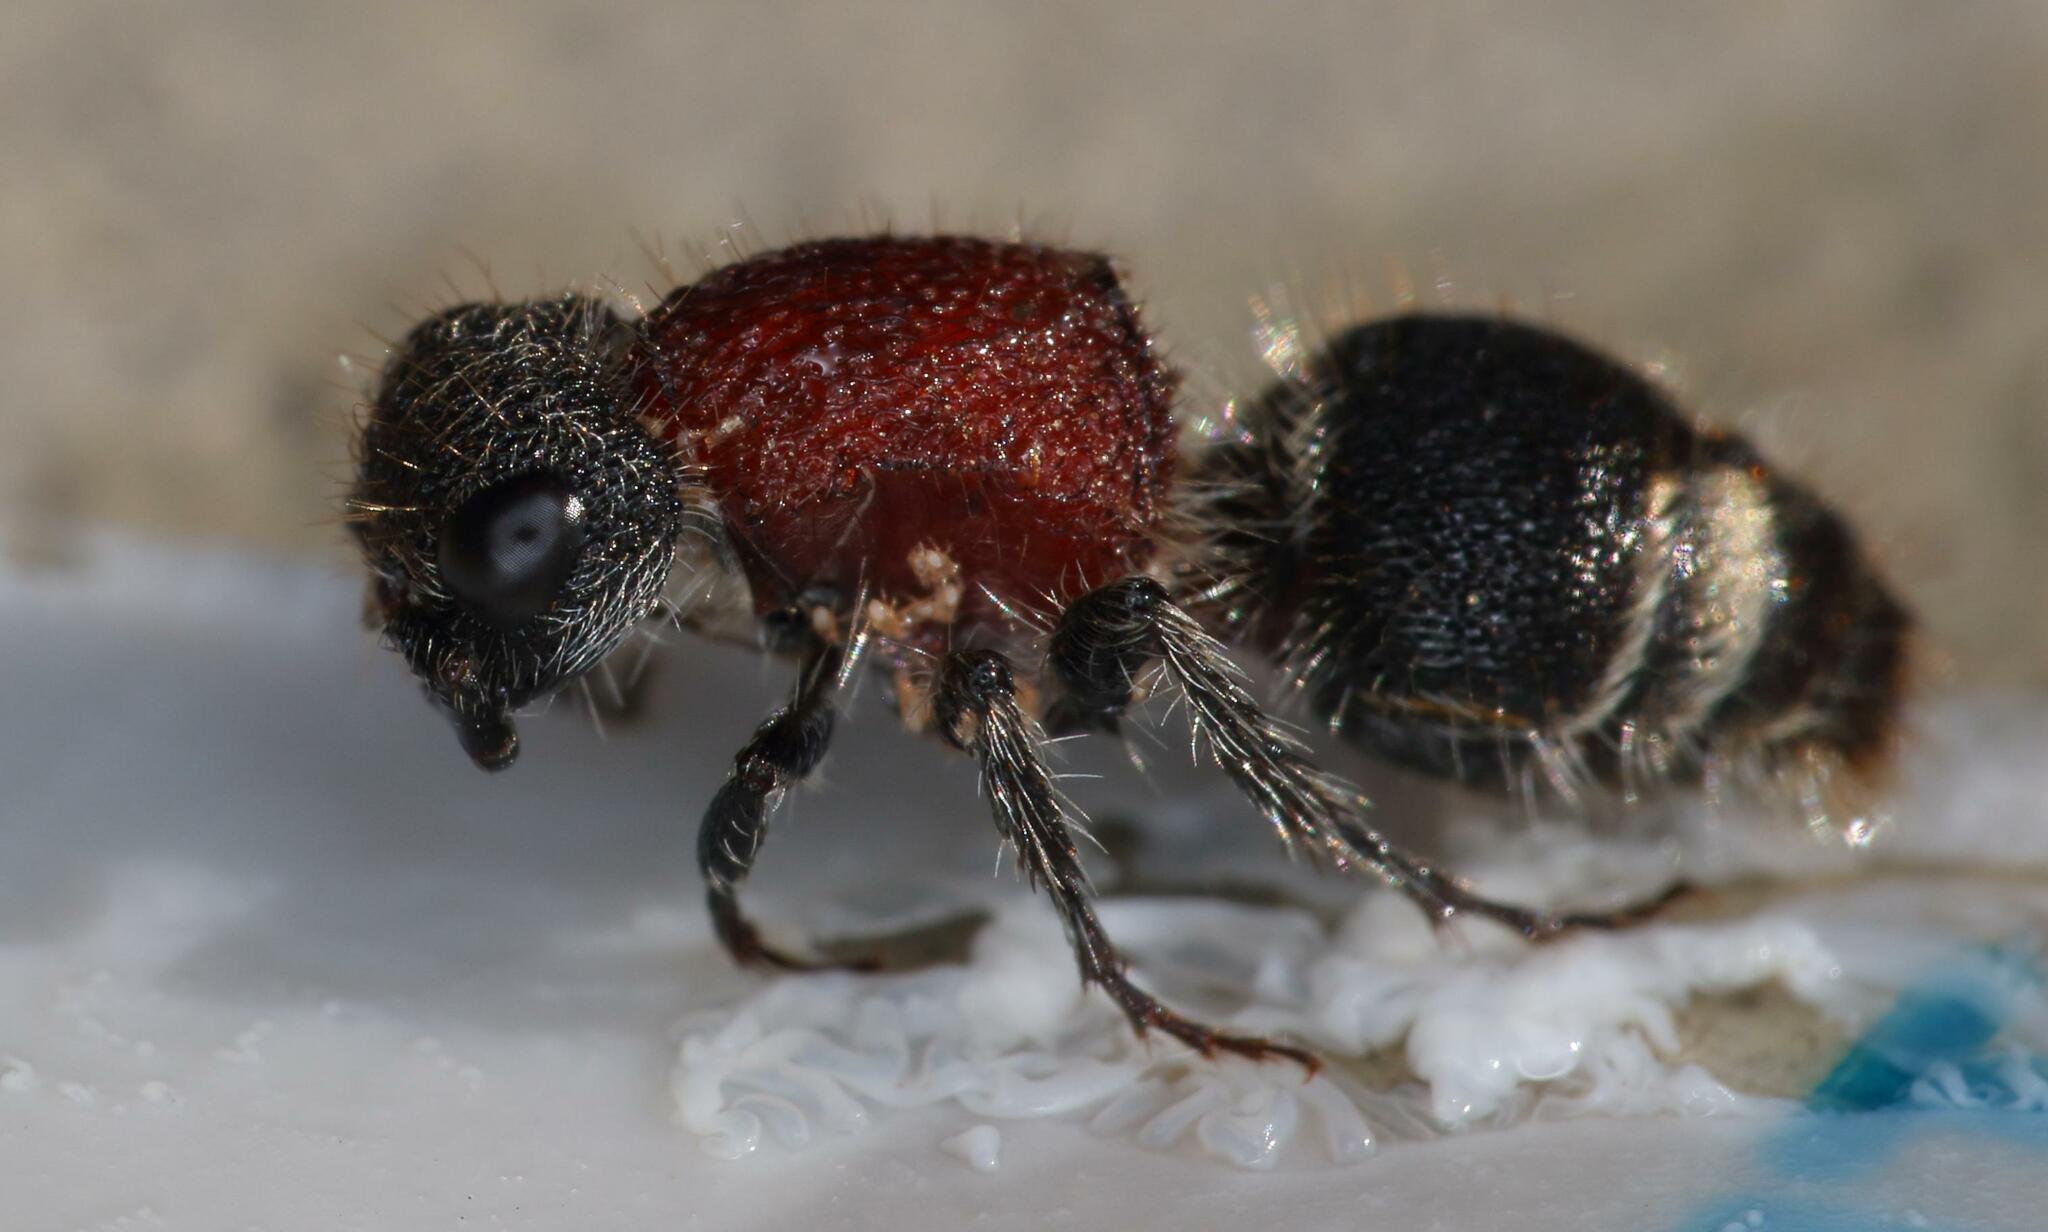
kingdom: Animalia
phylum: Arthropoda
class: Insecta
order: Hymenoptera
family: Mutillidae
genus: Arcuatotilla
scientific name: Arcuatotilla
